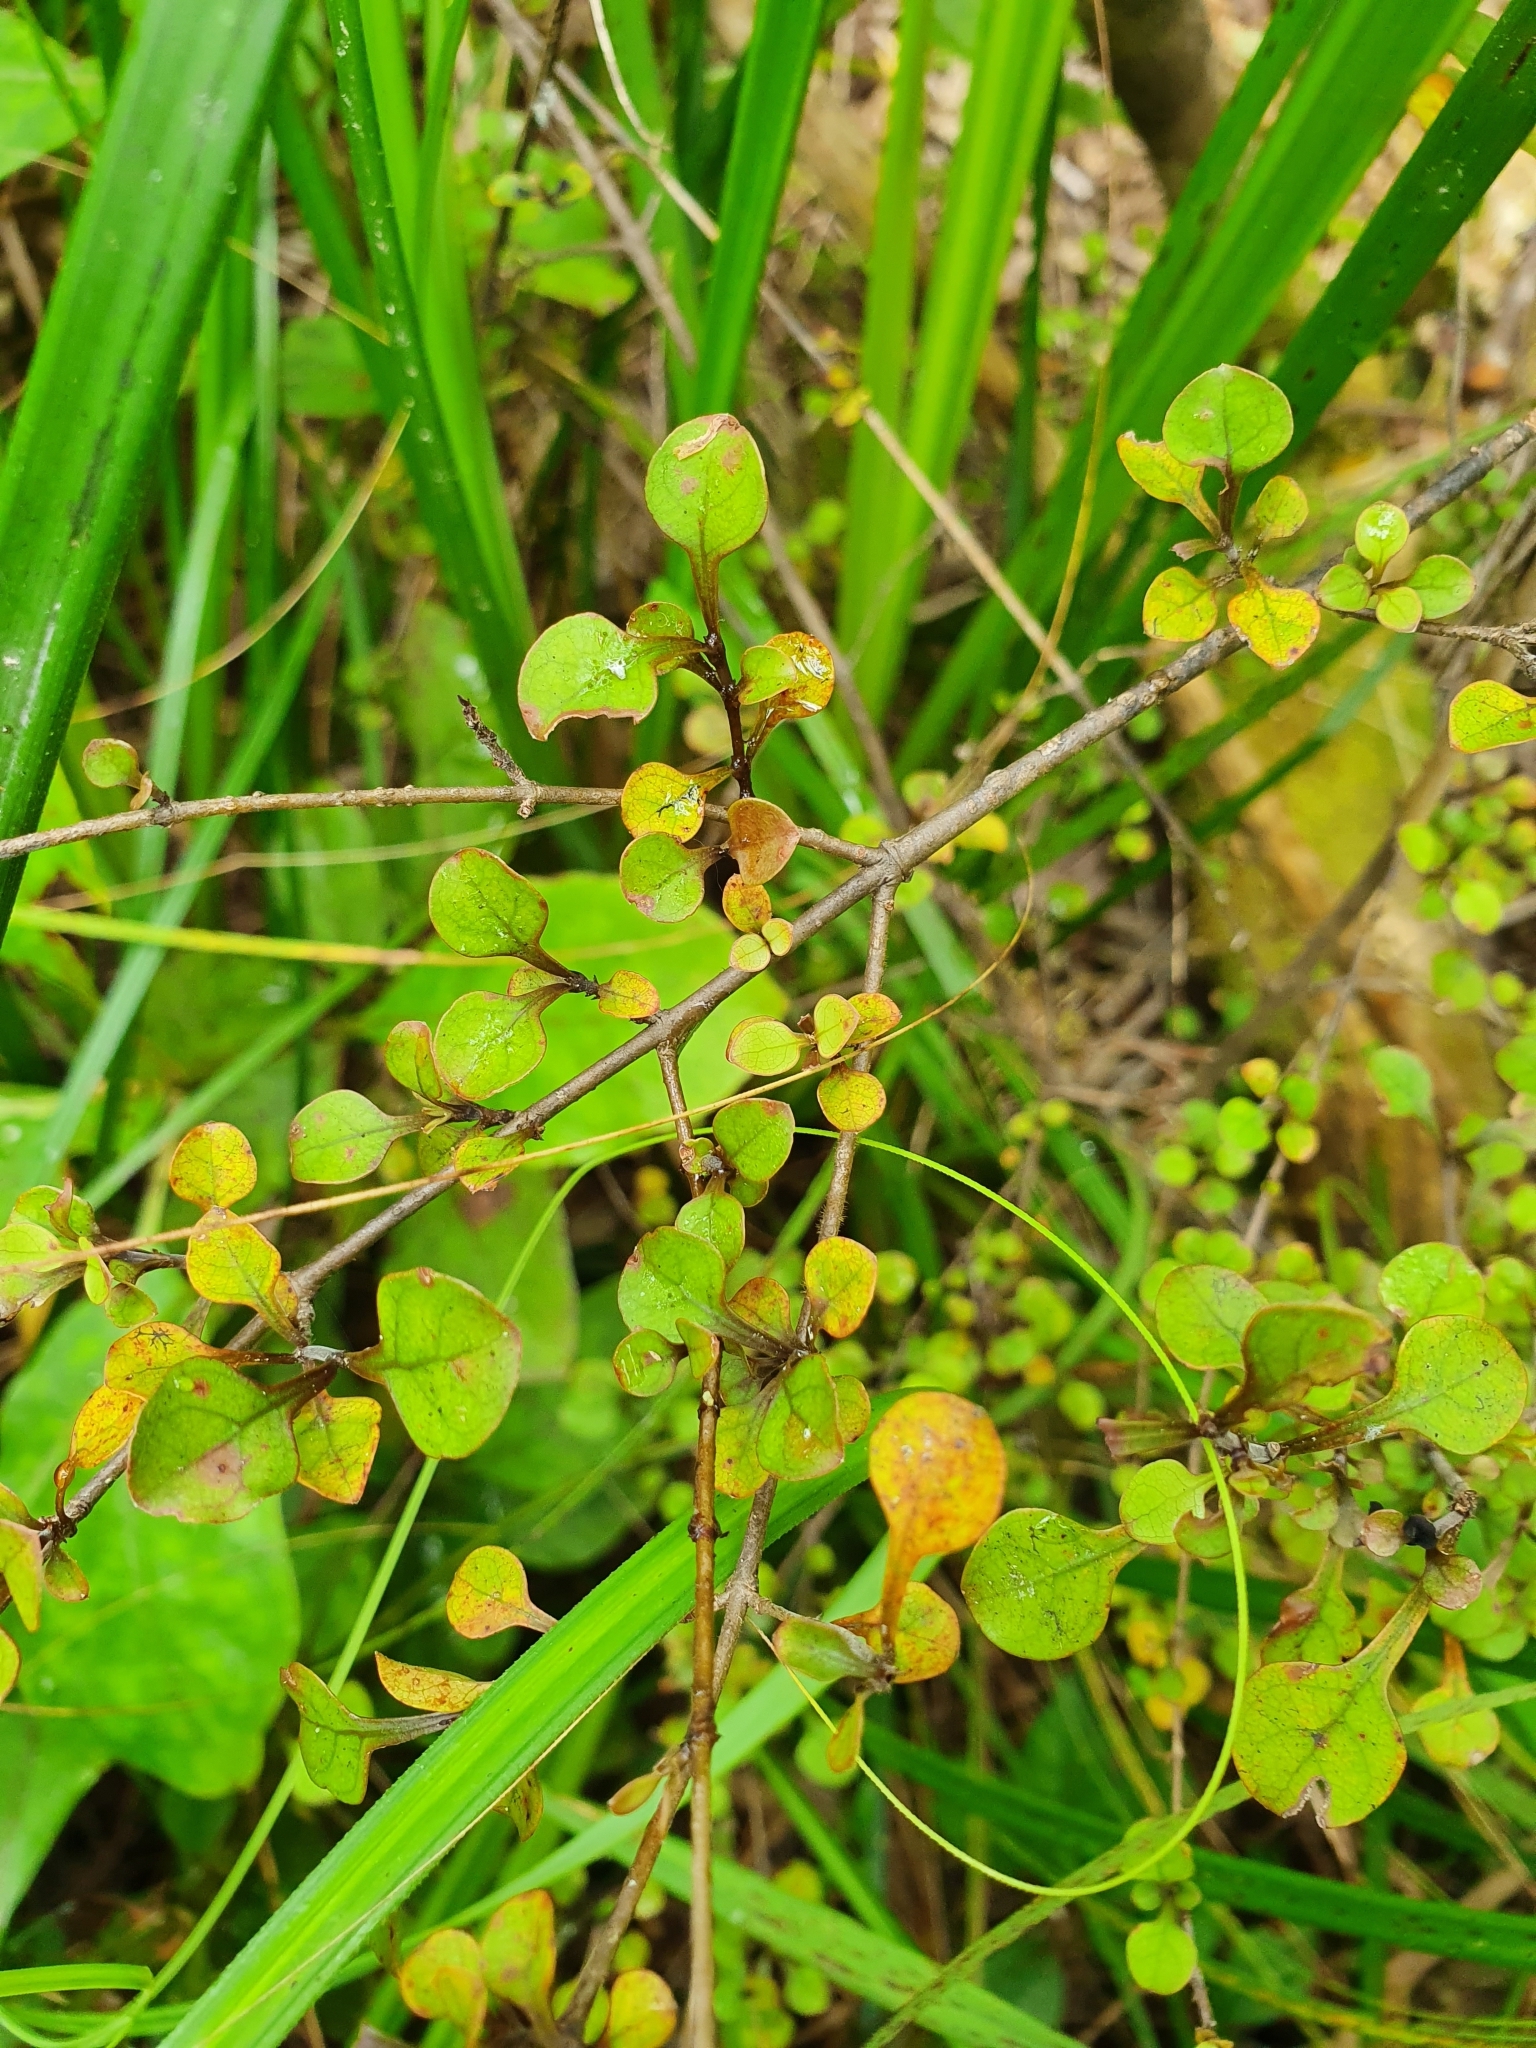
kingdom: Plantae
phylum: Tracheophyta
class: Magnoliopsida
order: Gentianales
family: Rubiaceae
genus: Coprosma
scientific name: Coprosma spathulata
